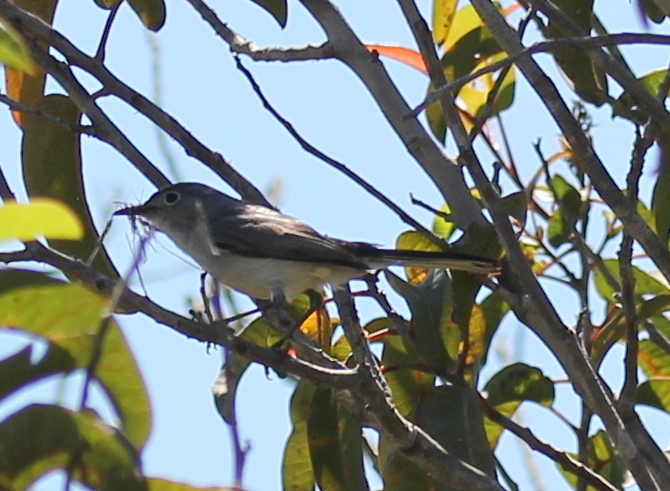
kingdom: Animalia
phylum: Chordata
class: Aves
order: Passeriformes
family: Polioptilidae
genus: Polioptila
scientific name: Polioptila caerulea
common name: Blue-gray gnatcatcher
